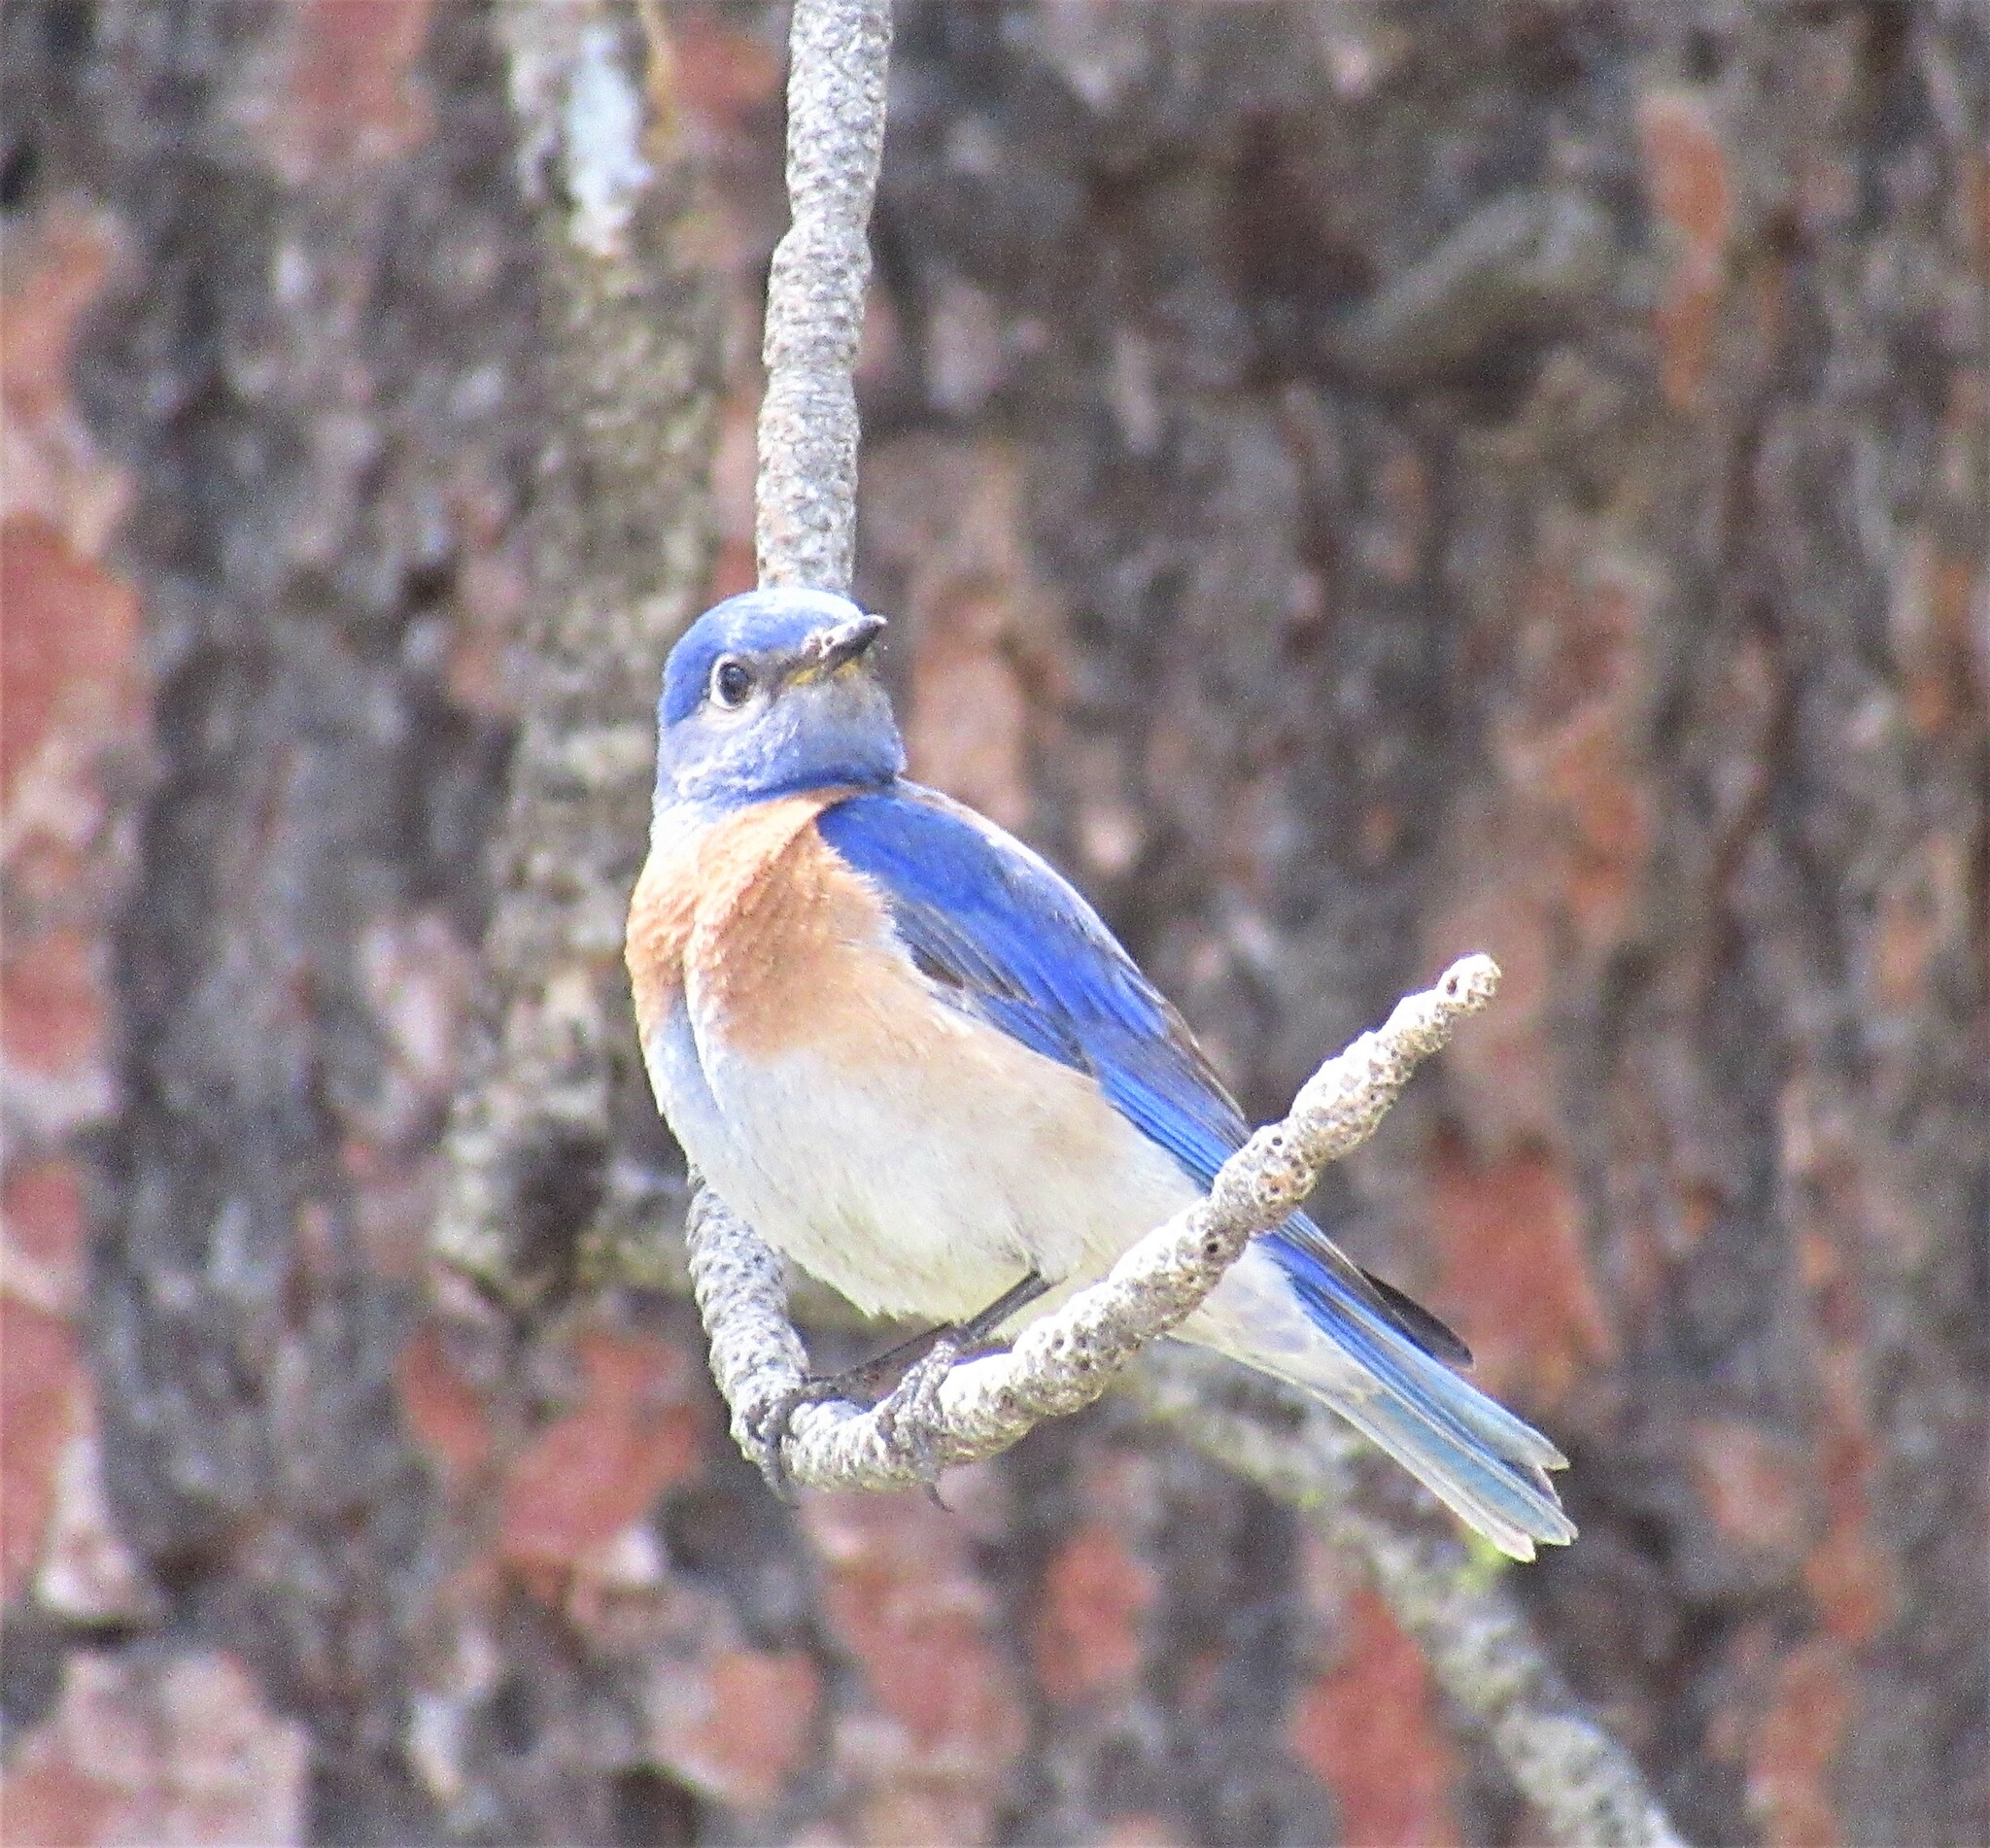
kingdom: Animalia
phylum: Chordata
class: Aves
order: Passeriformes
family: Turdidae
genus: Sialia
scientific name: Sialia mexicana
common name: Western bluebird
